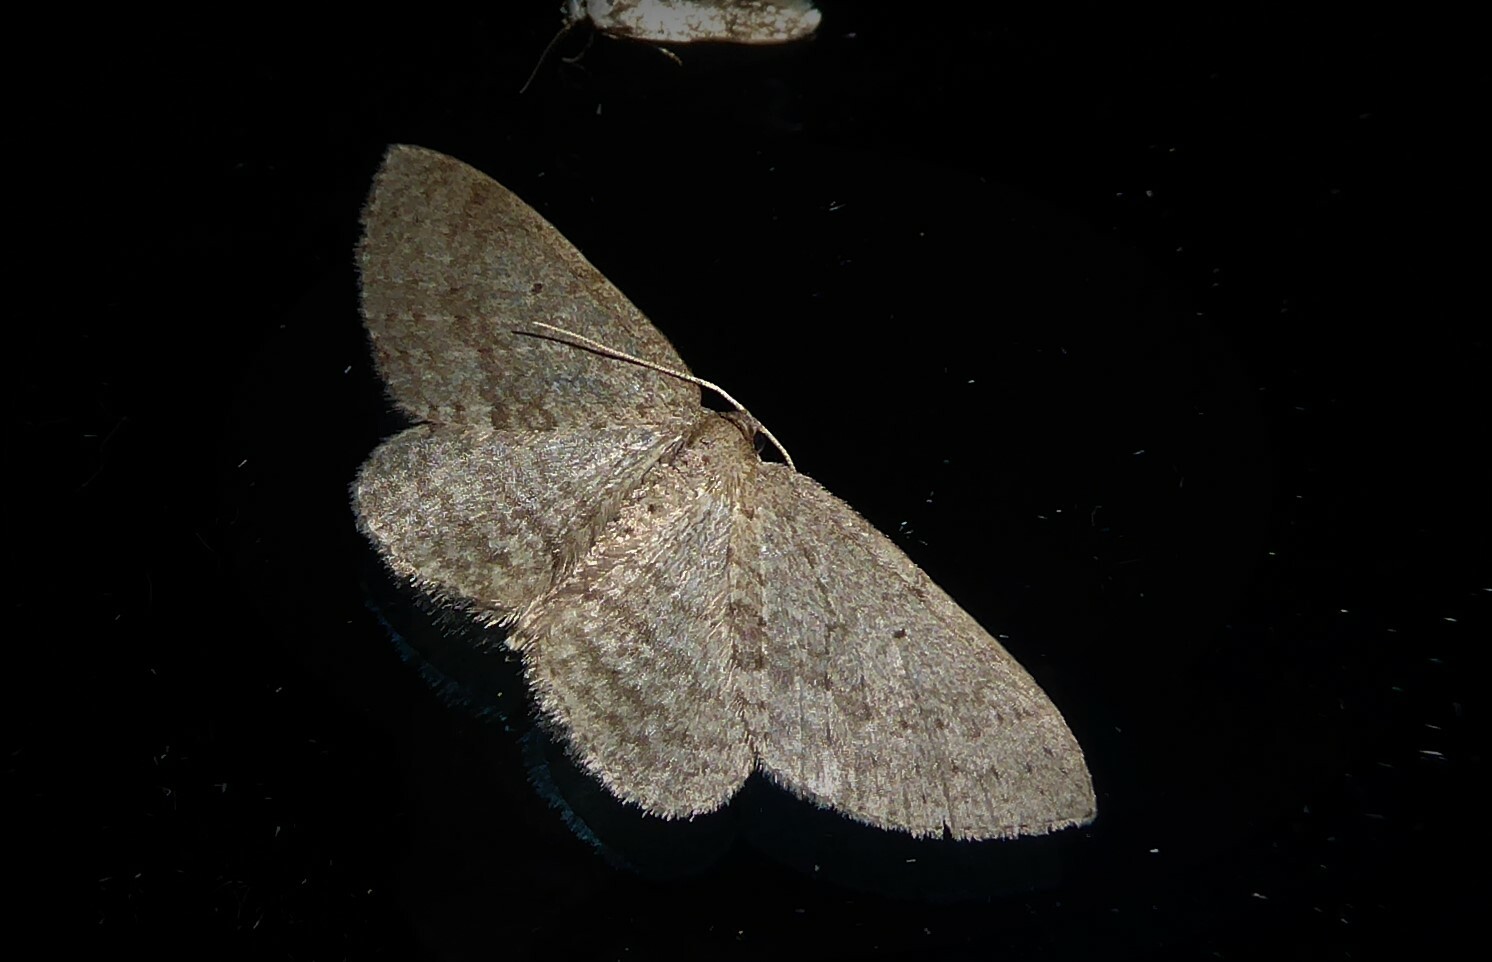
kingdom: Animalia
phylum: Arthropoda
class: Insecta
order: Lepidoptera
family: Geometridae
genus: Poecilasthena
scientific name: Poecilasthena schistaria
